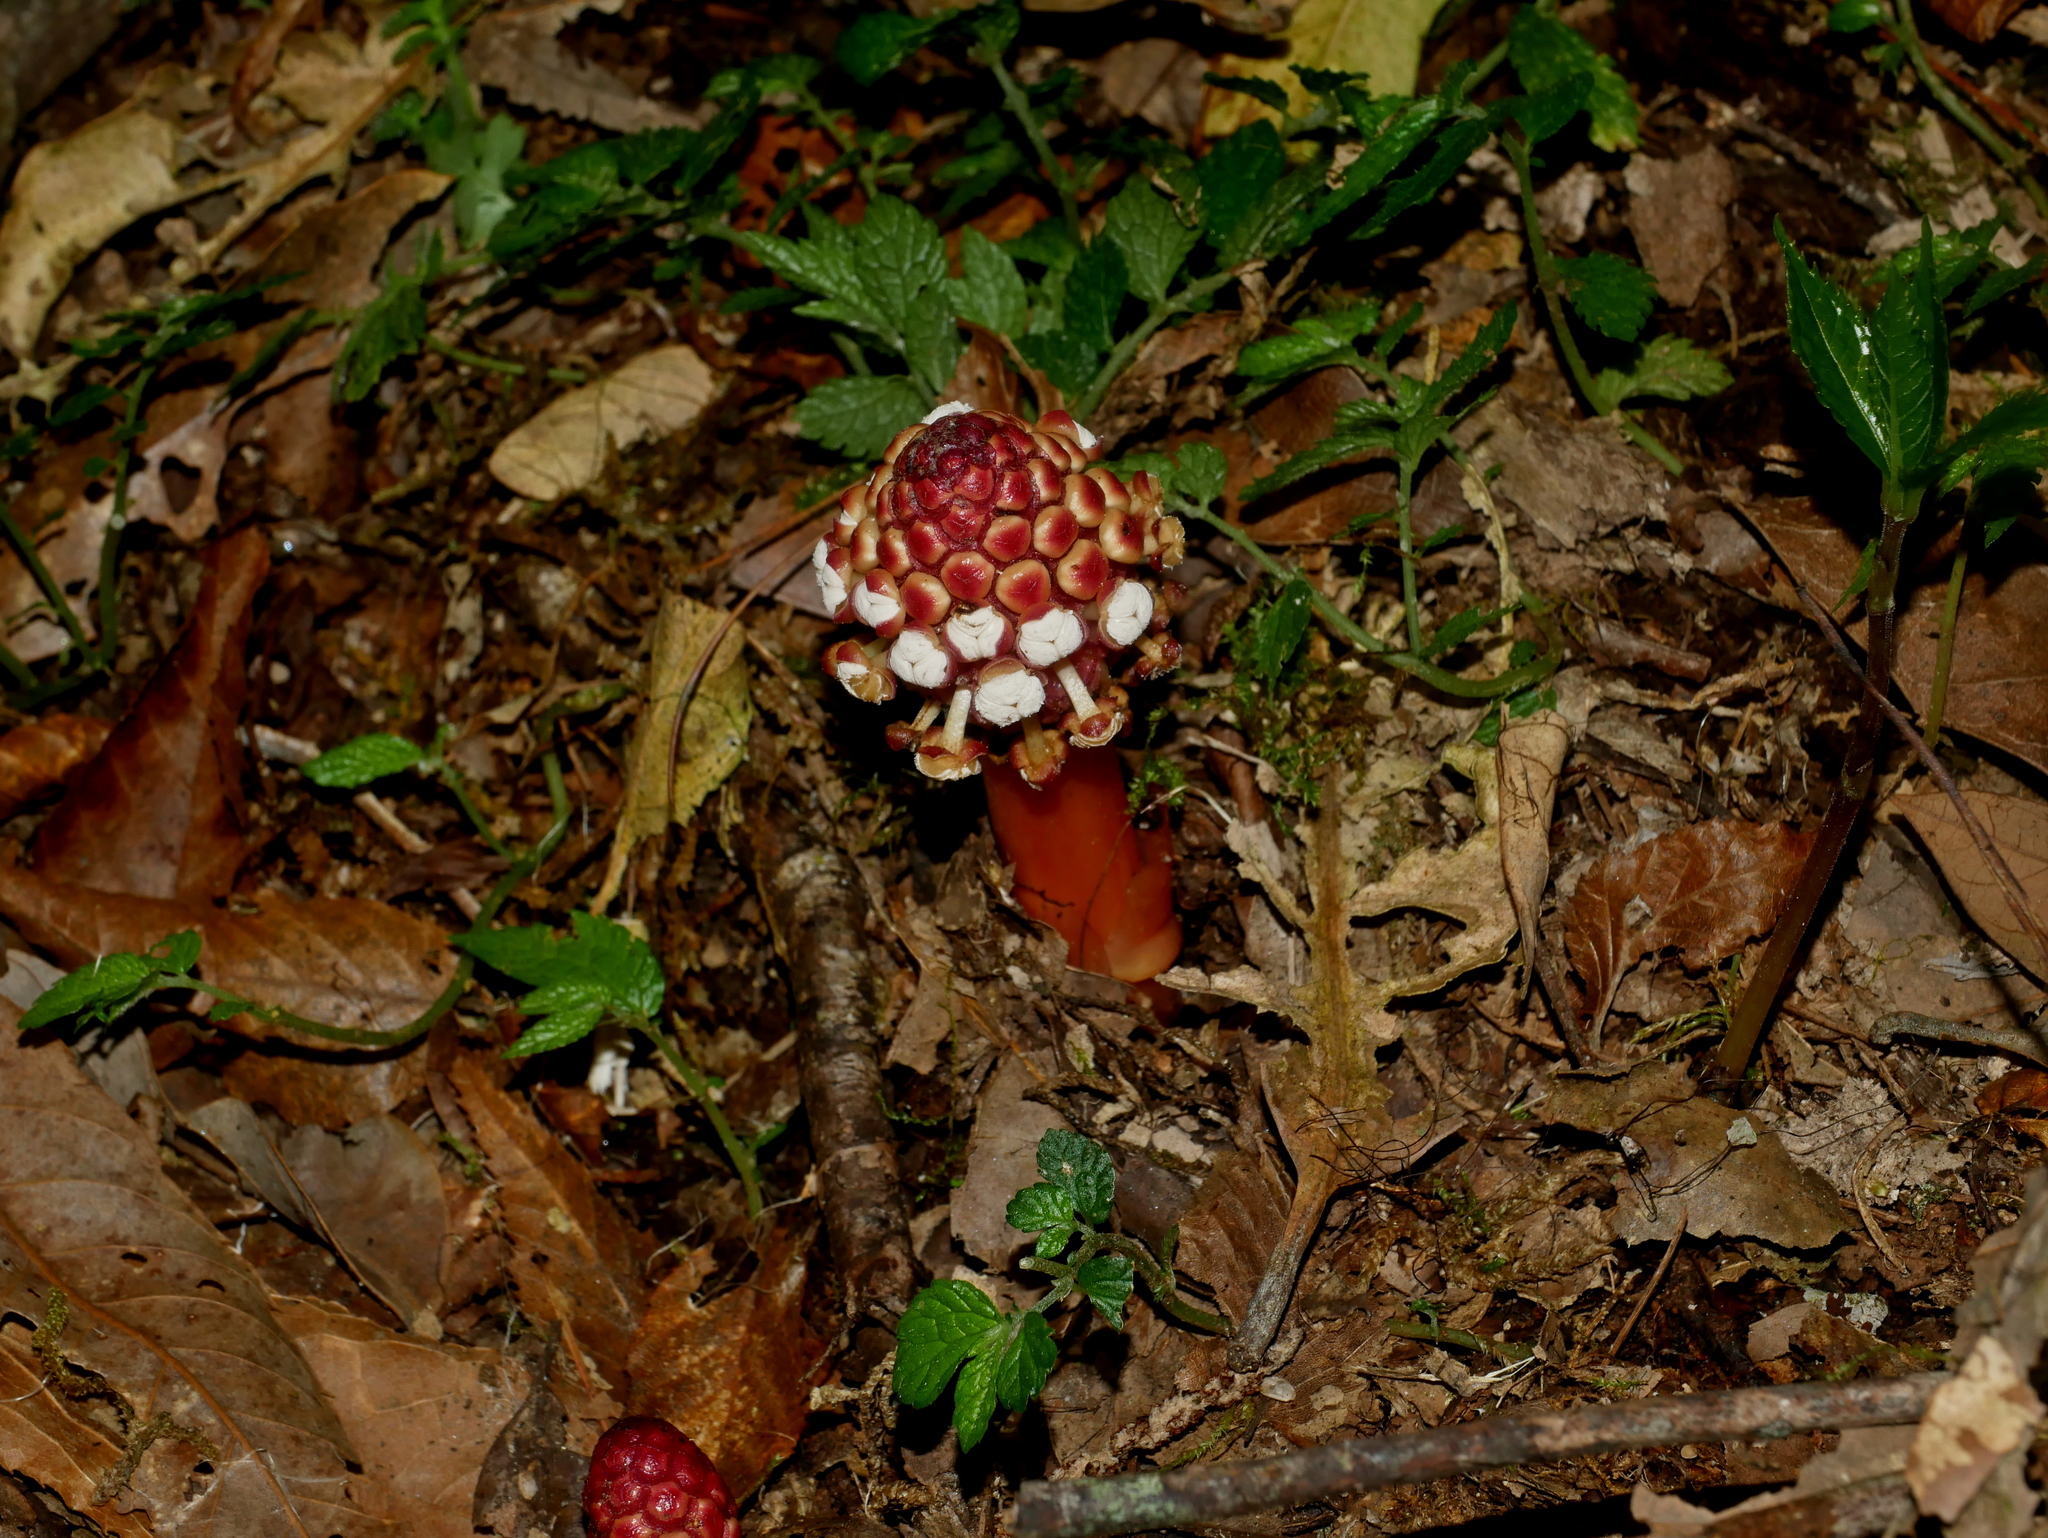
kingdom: Plantae
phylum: Tracheophyta
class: Magnoliopsida
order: Santalales
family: Balanophoraceae
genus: Balanophora
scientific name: Balanophora harlandii
